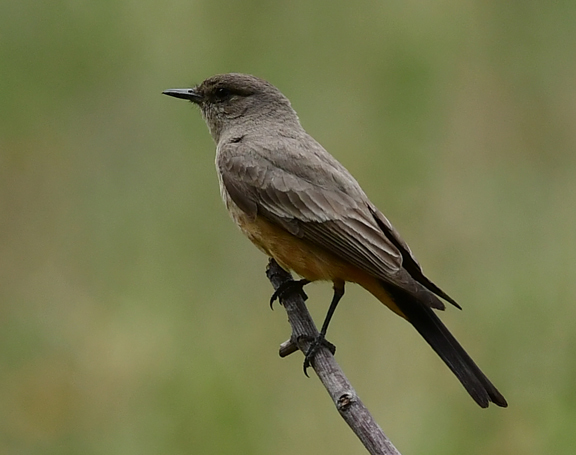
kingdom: Animalia
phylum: Chordata
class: Aves
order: Passeriformes
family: Tyrannidae
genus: Sayornis
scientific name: Sayornis saya
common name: Say's phoebe
